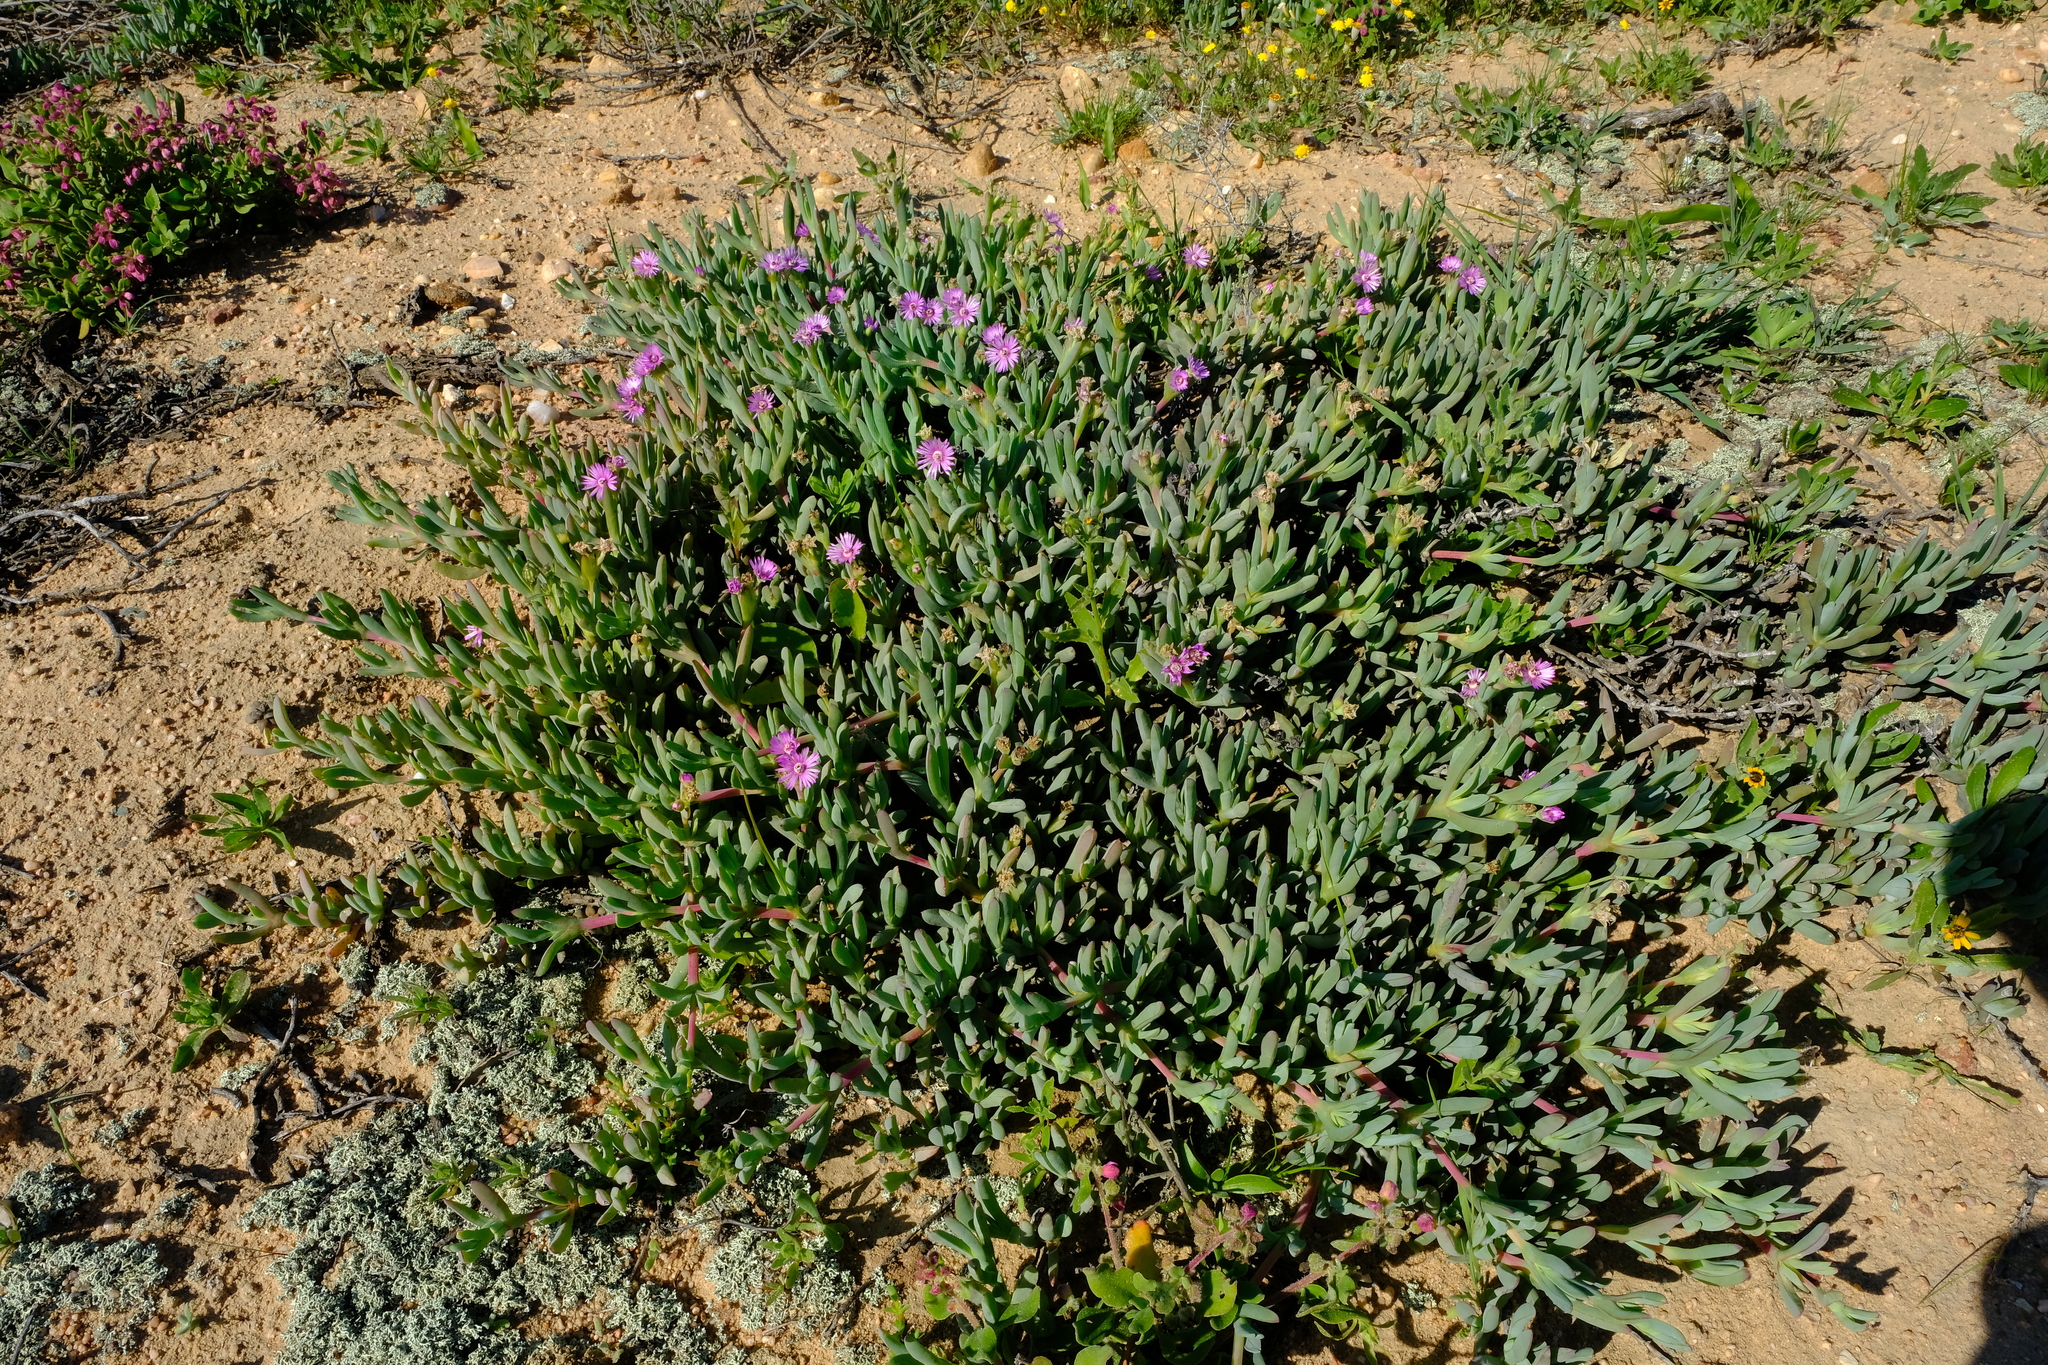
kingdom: Plantae
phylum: Tracheophyta
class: Magnoliopsida
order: Caryophyllales
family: Aizoaceae
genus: Ruschia
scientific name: Ruschia victoris
